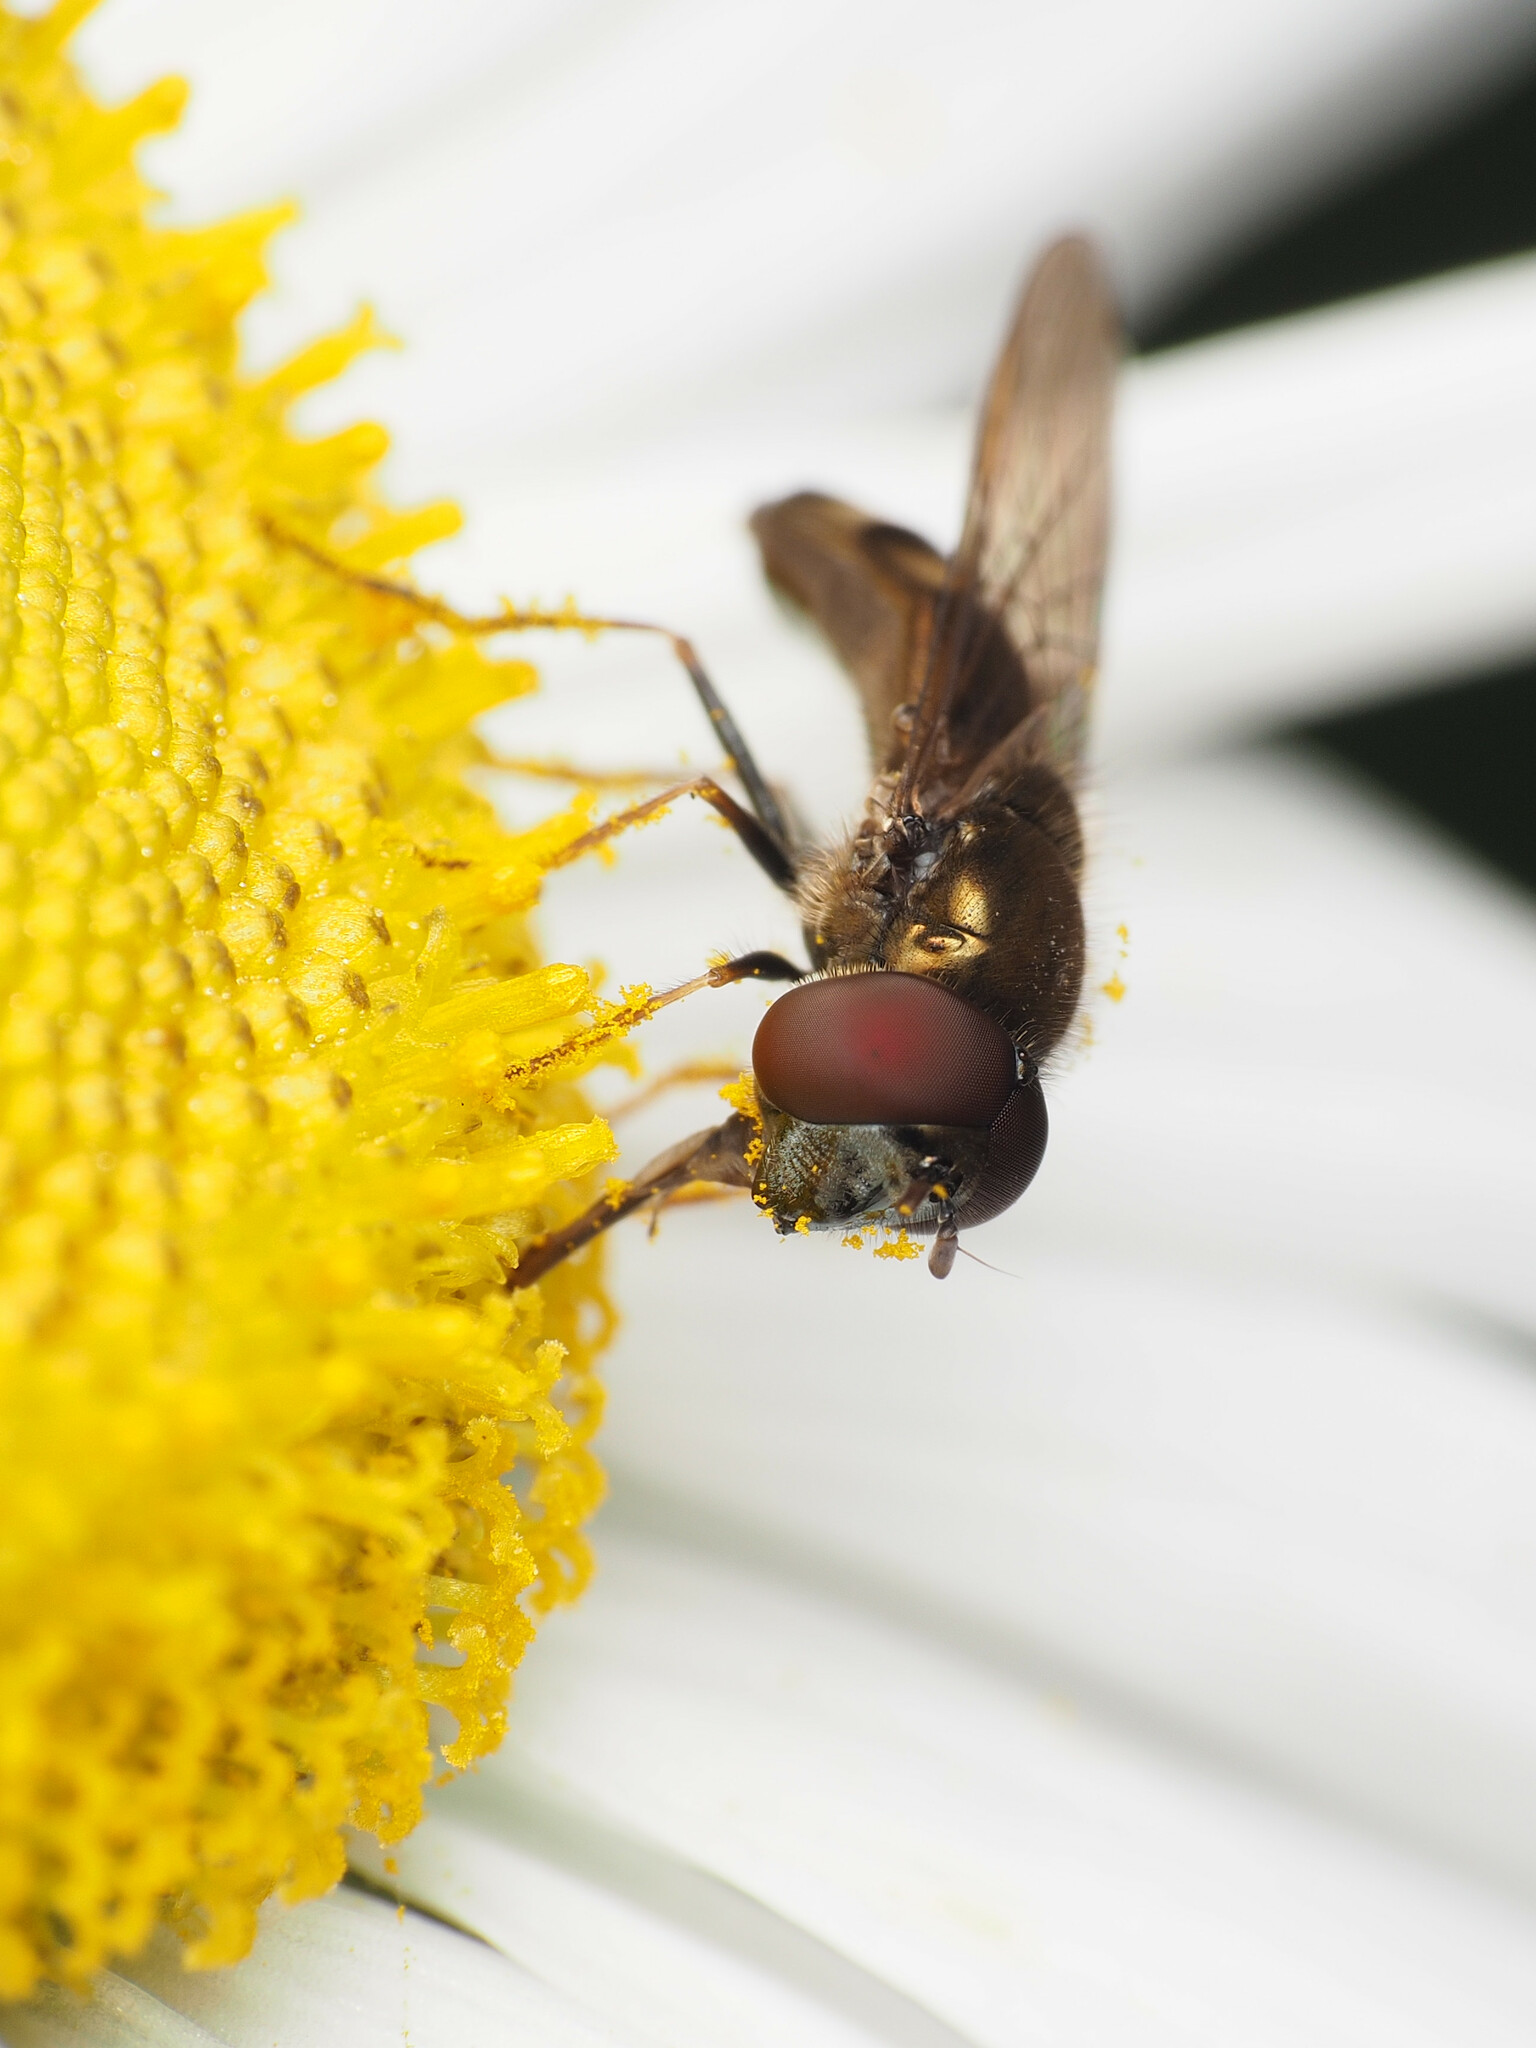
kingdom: Animalia
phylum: Arthropoda
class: Insecta
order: Diptera
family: Syrphidae
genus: Platycheirus
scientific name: Platycheirus obscurus
